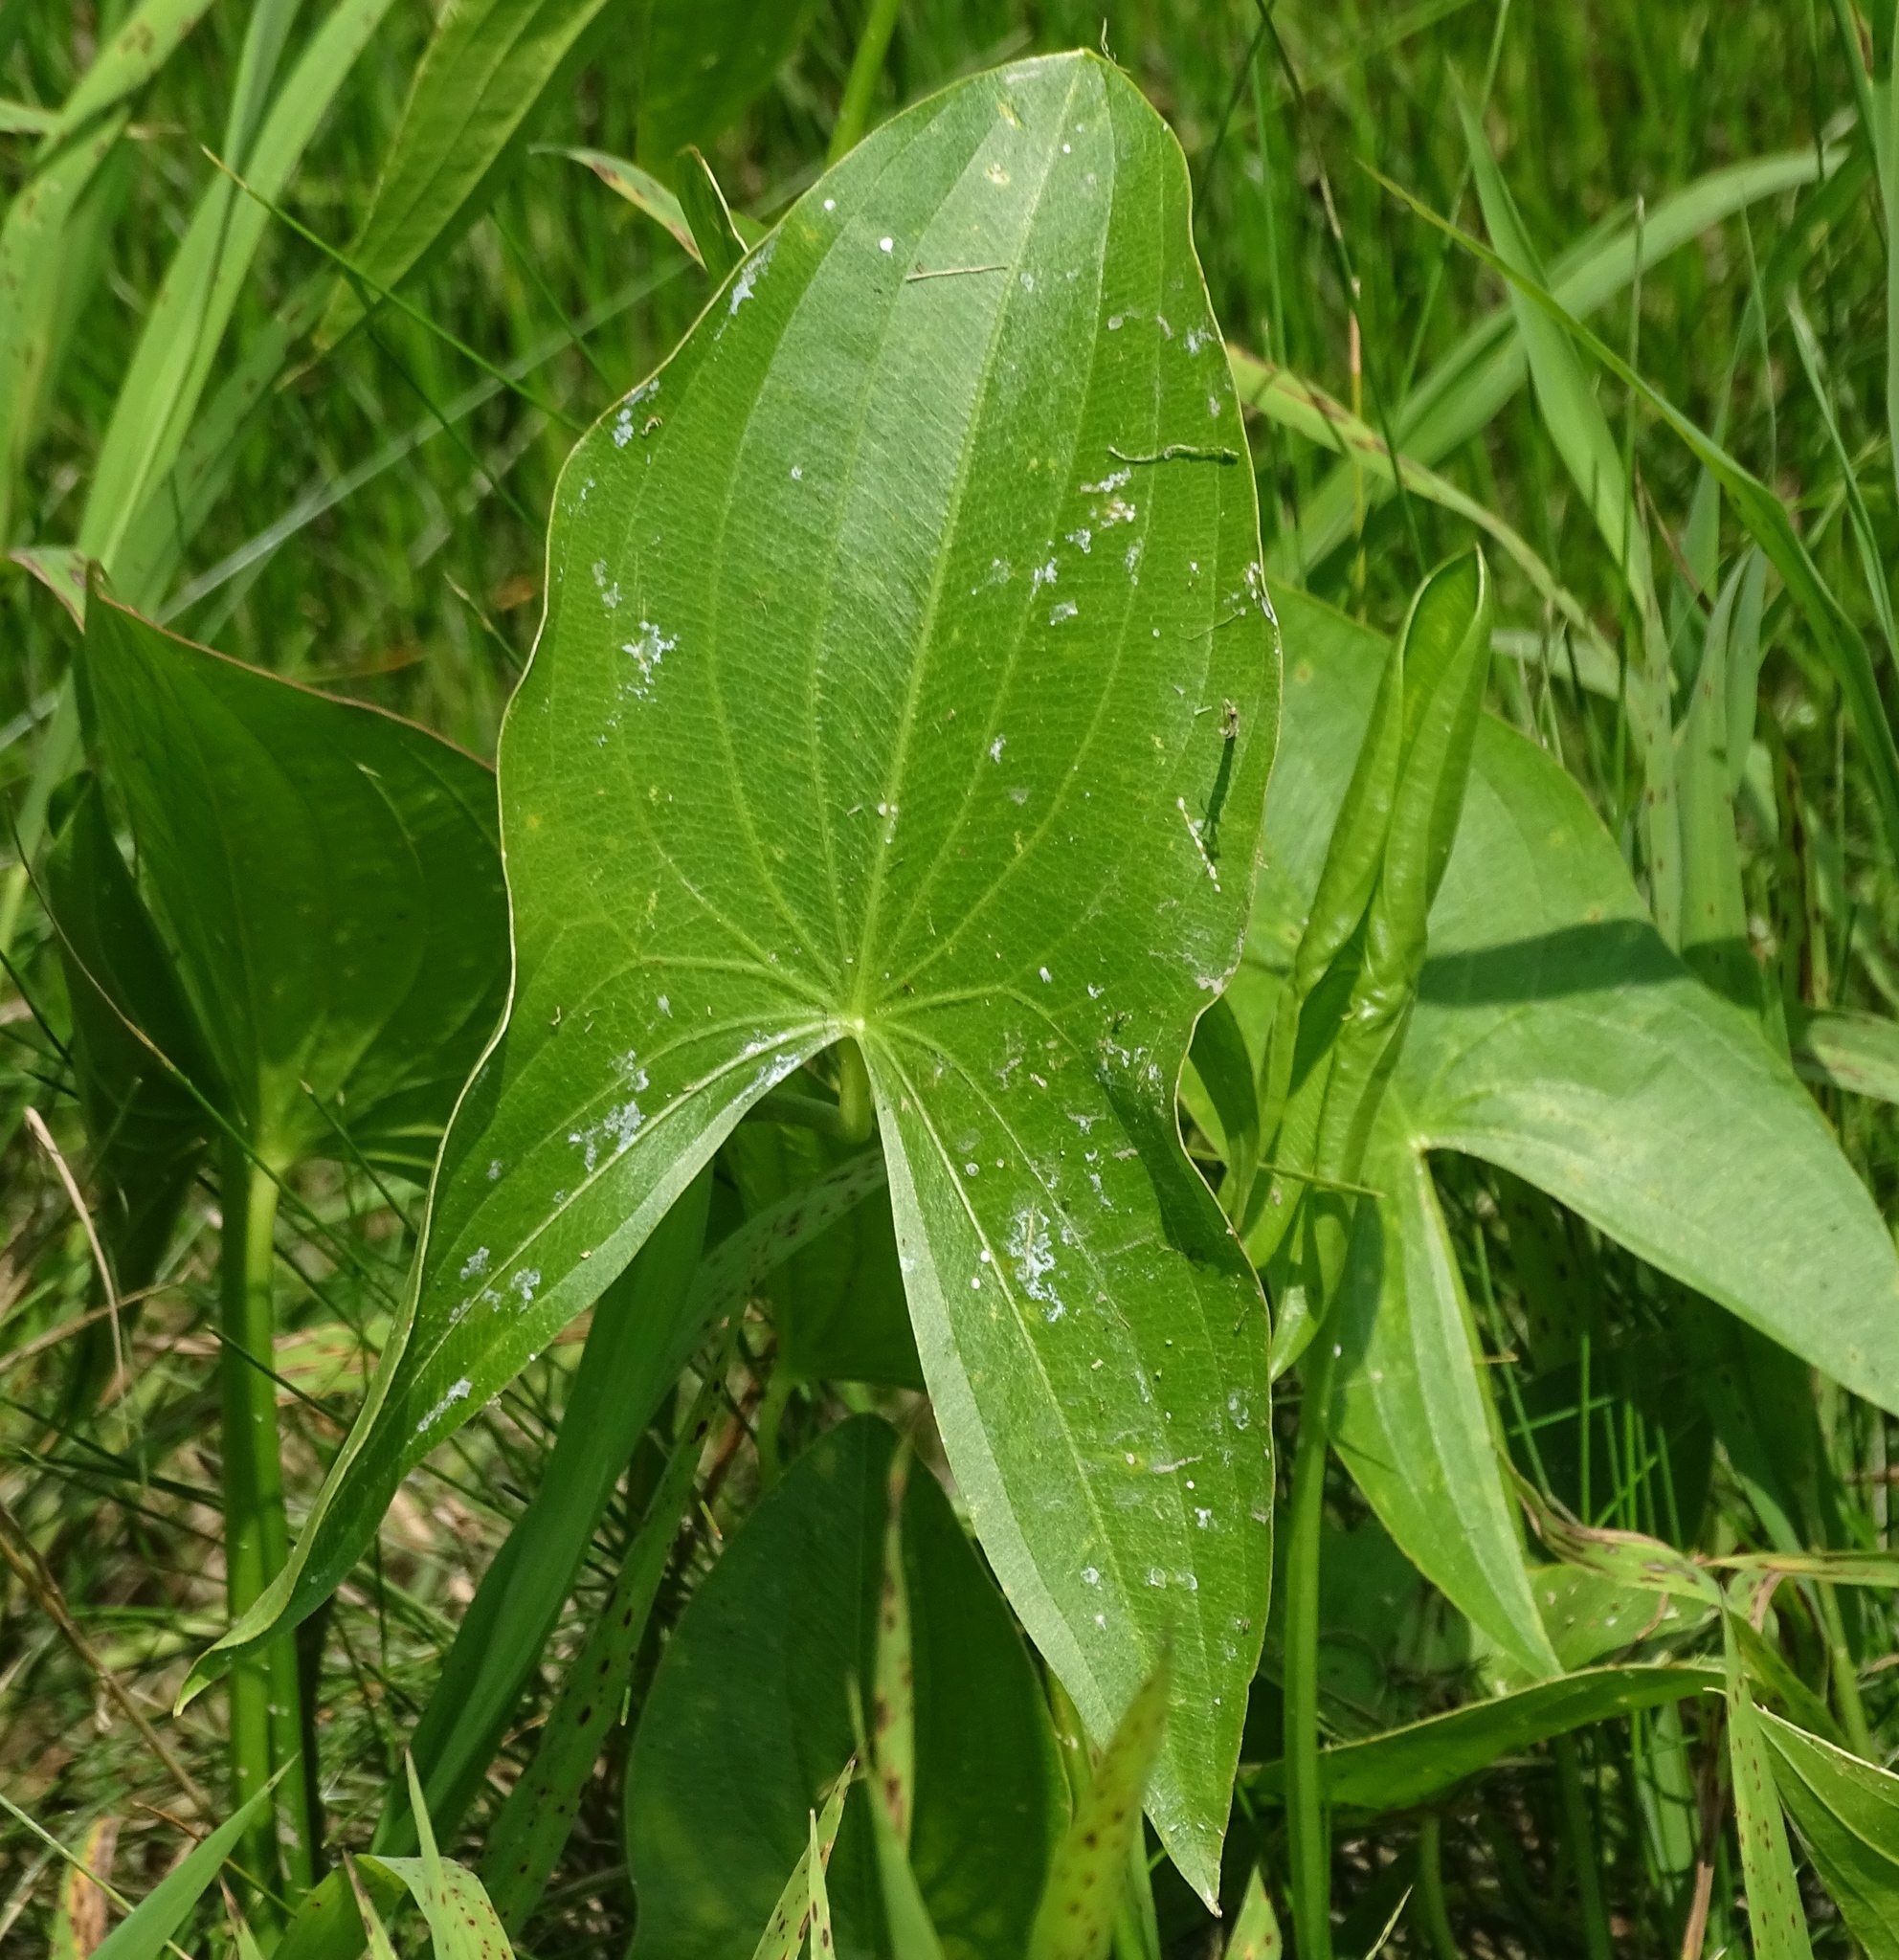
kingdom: Plantae
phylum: Tracheophyta
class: Liliopsida
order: Alismatales
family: Alismataceae
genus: Sagittaria
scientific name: Sagittaria latifolia
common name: Duck-potato
